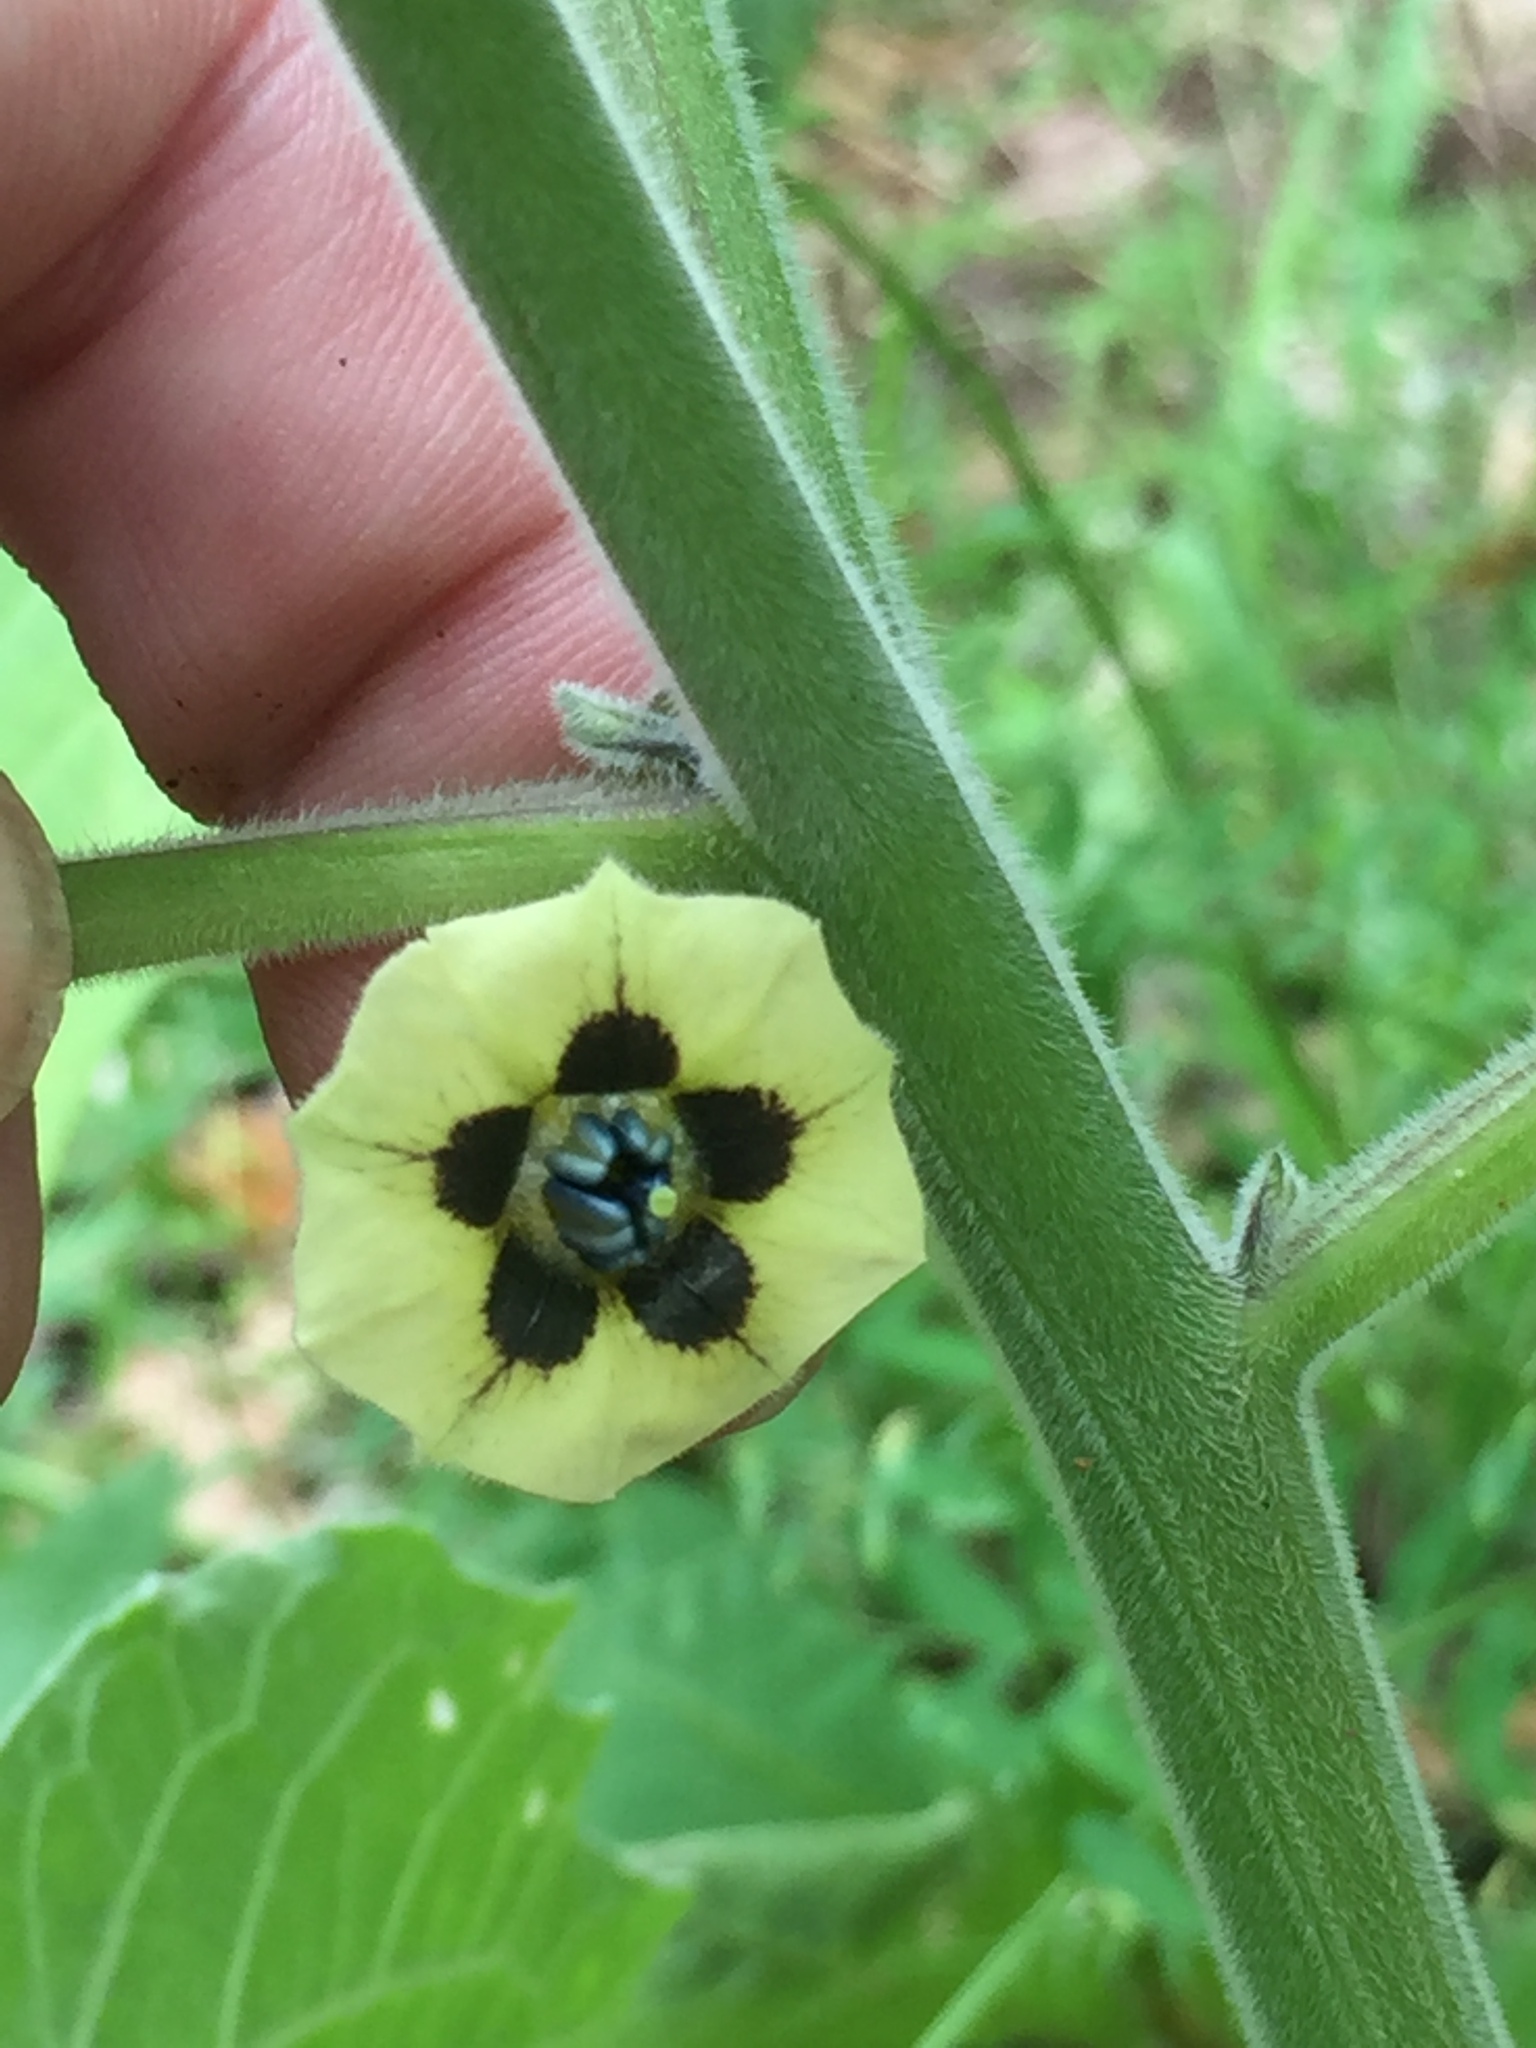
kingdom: Plantae
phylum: Tracheophyta
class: Magnoliopsida
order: Solanales
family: Solanaceae
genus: Physalis
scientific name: Physalis peruviana
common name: Cape-gooseberry
